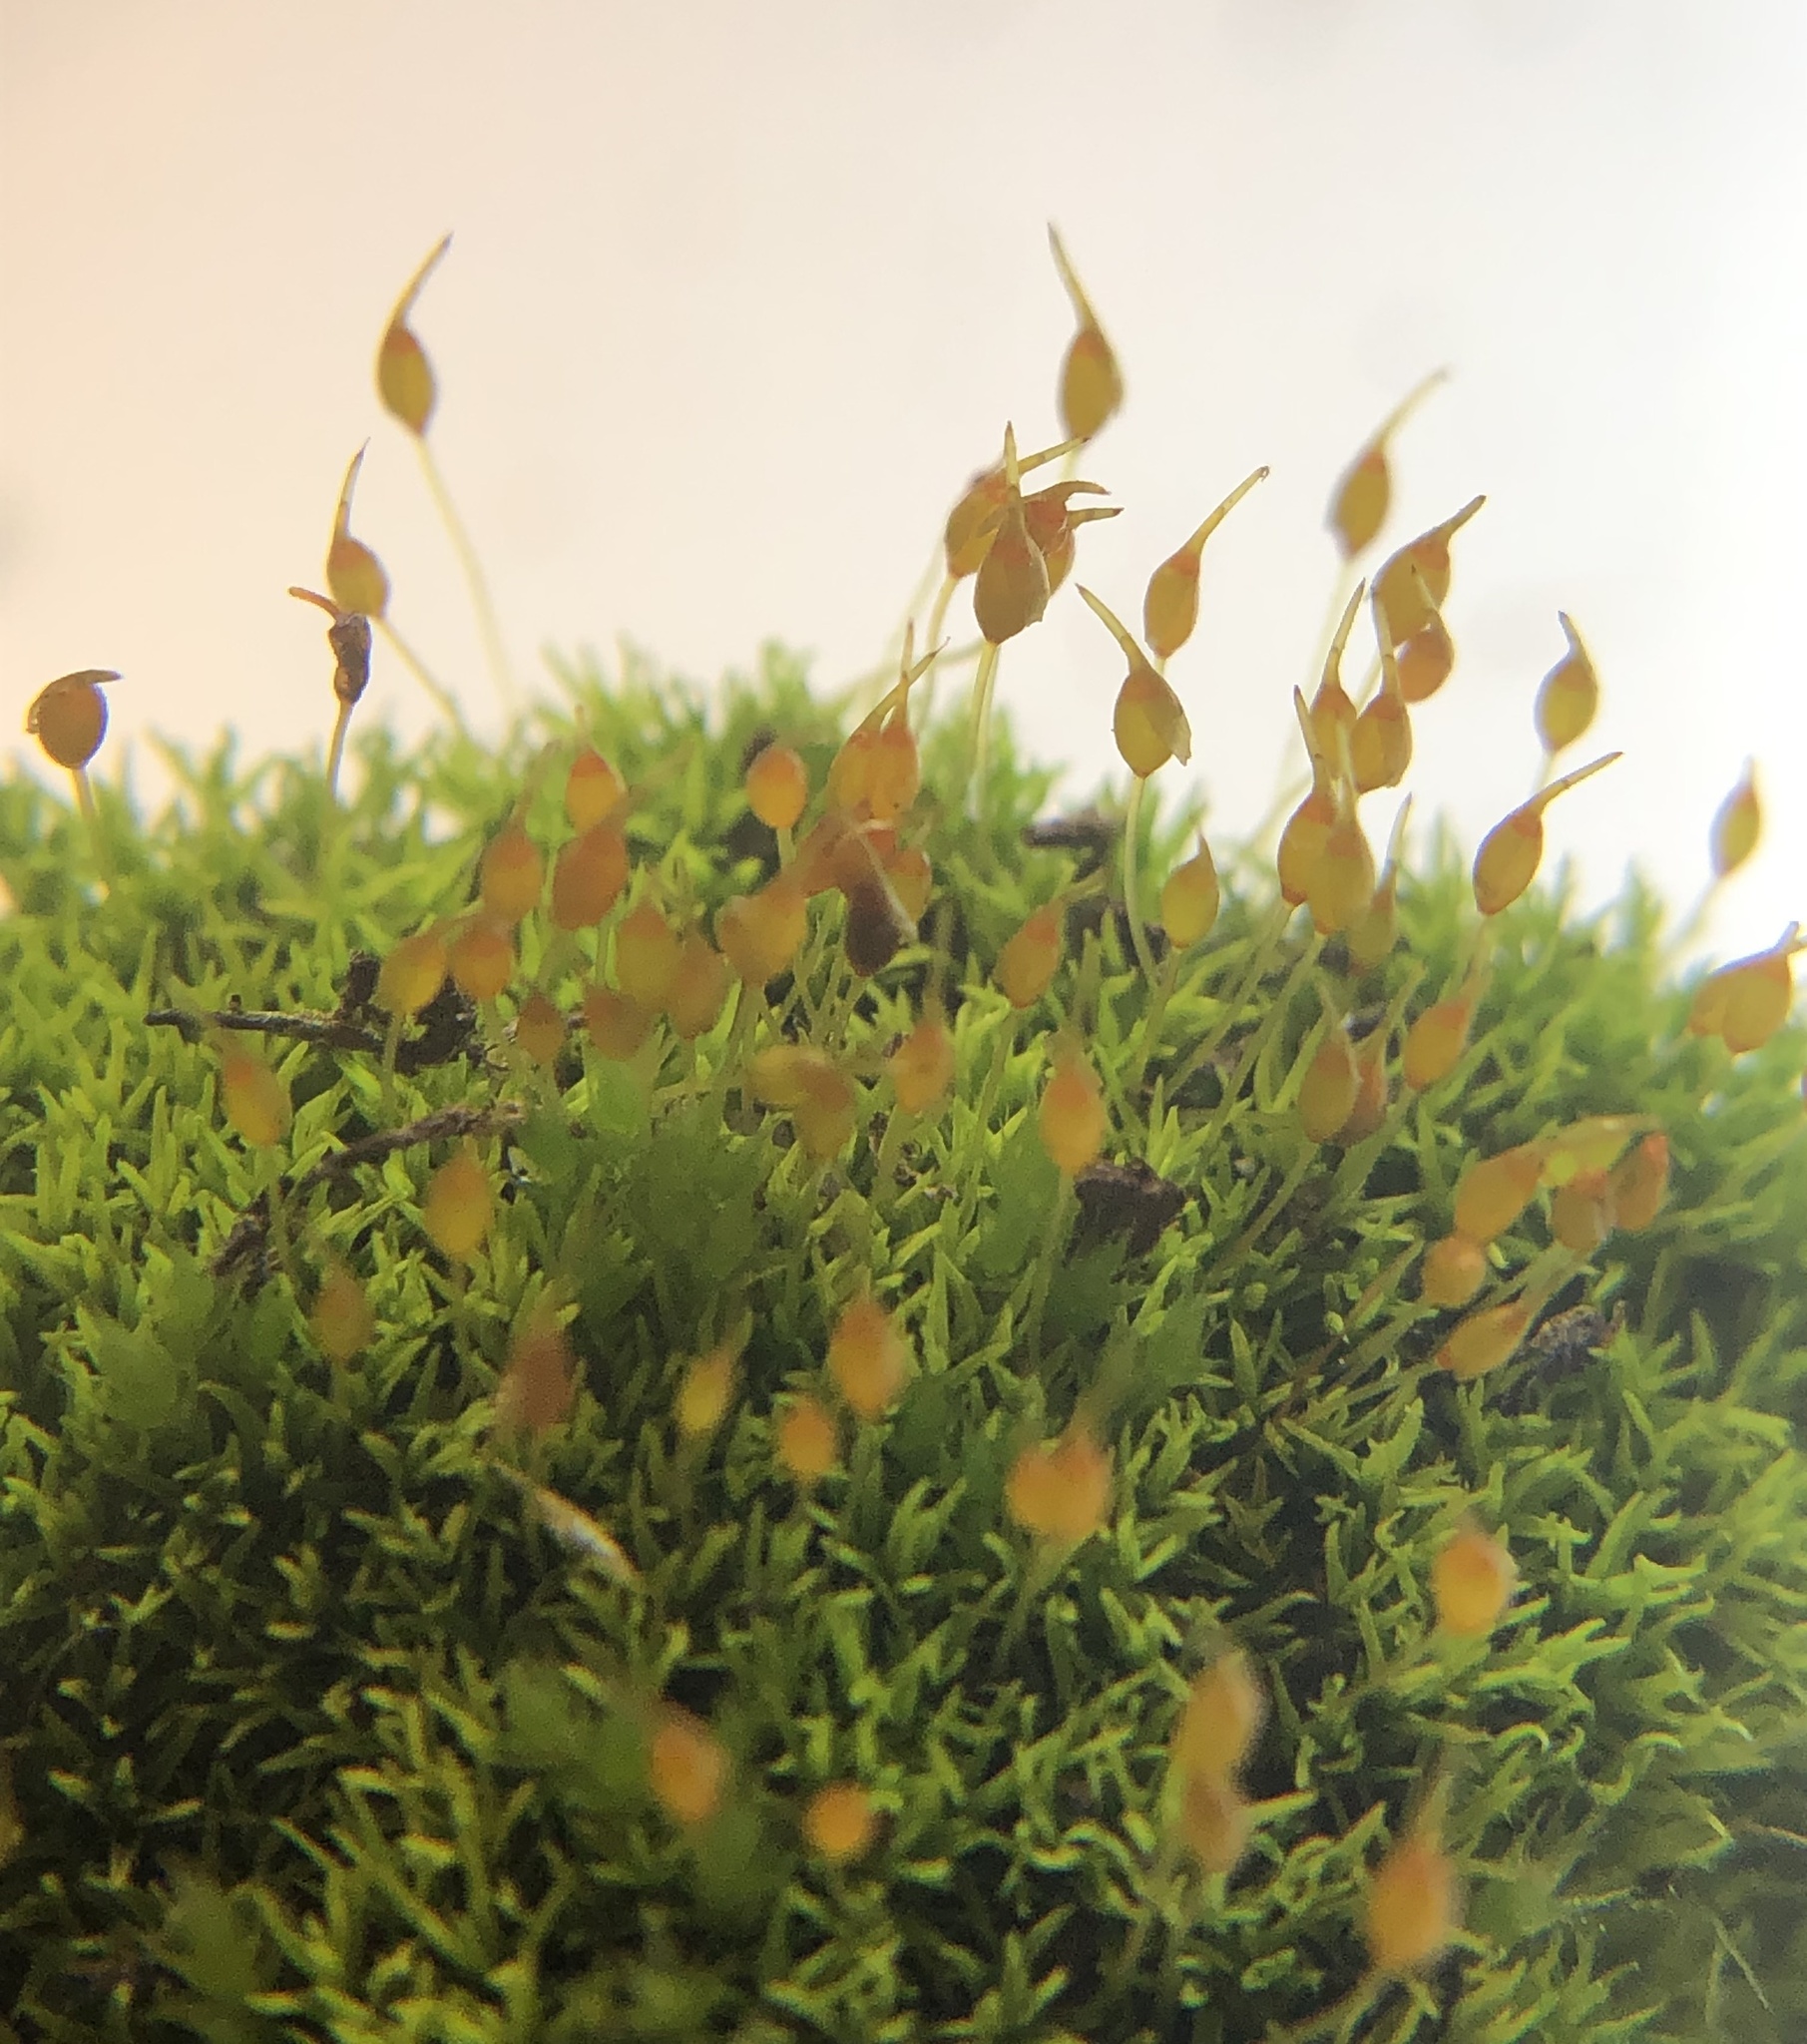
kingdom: Plantae
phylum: Bryophyta
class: Bryopsida
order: Pottiales
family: Pottiaceae
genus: Weissia
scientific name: Weissia controversa
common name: Green-tufted stubble moss
